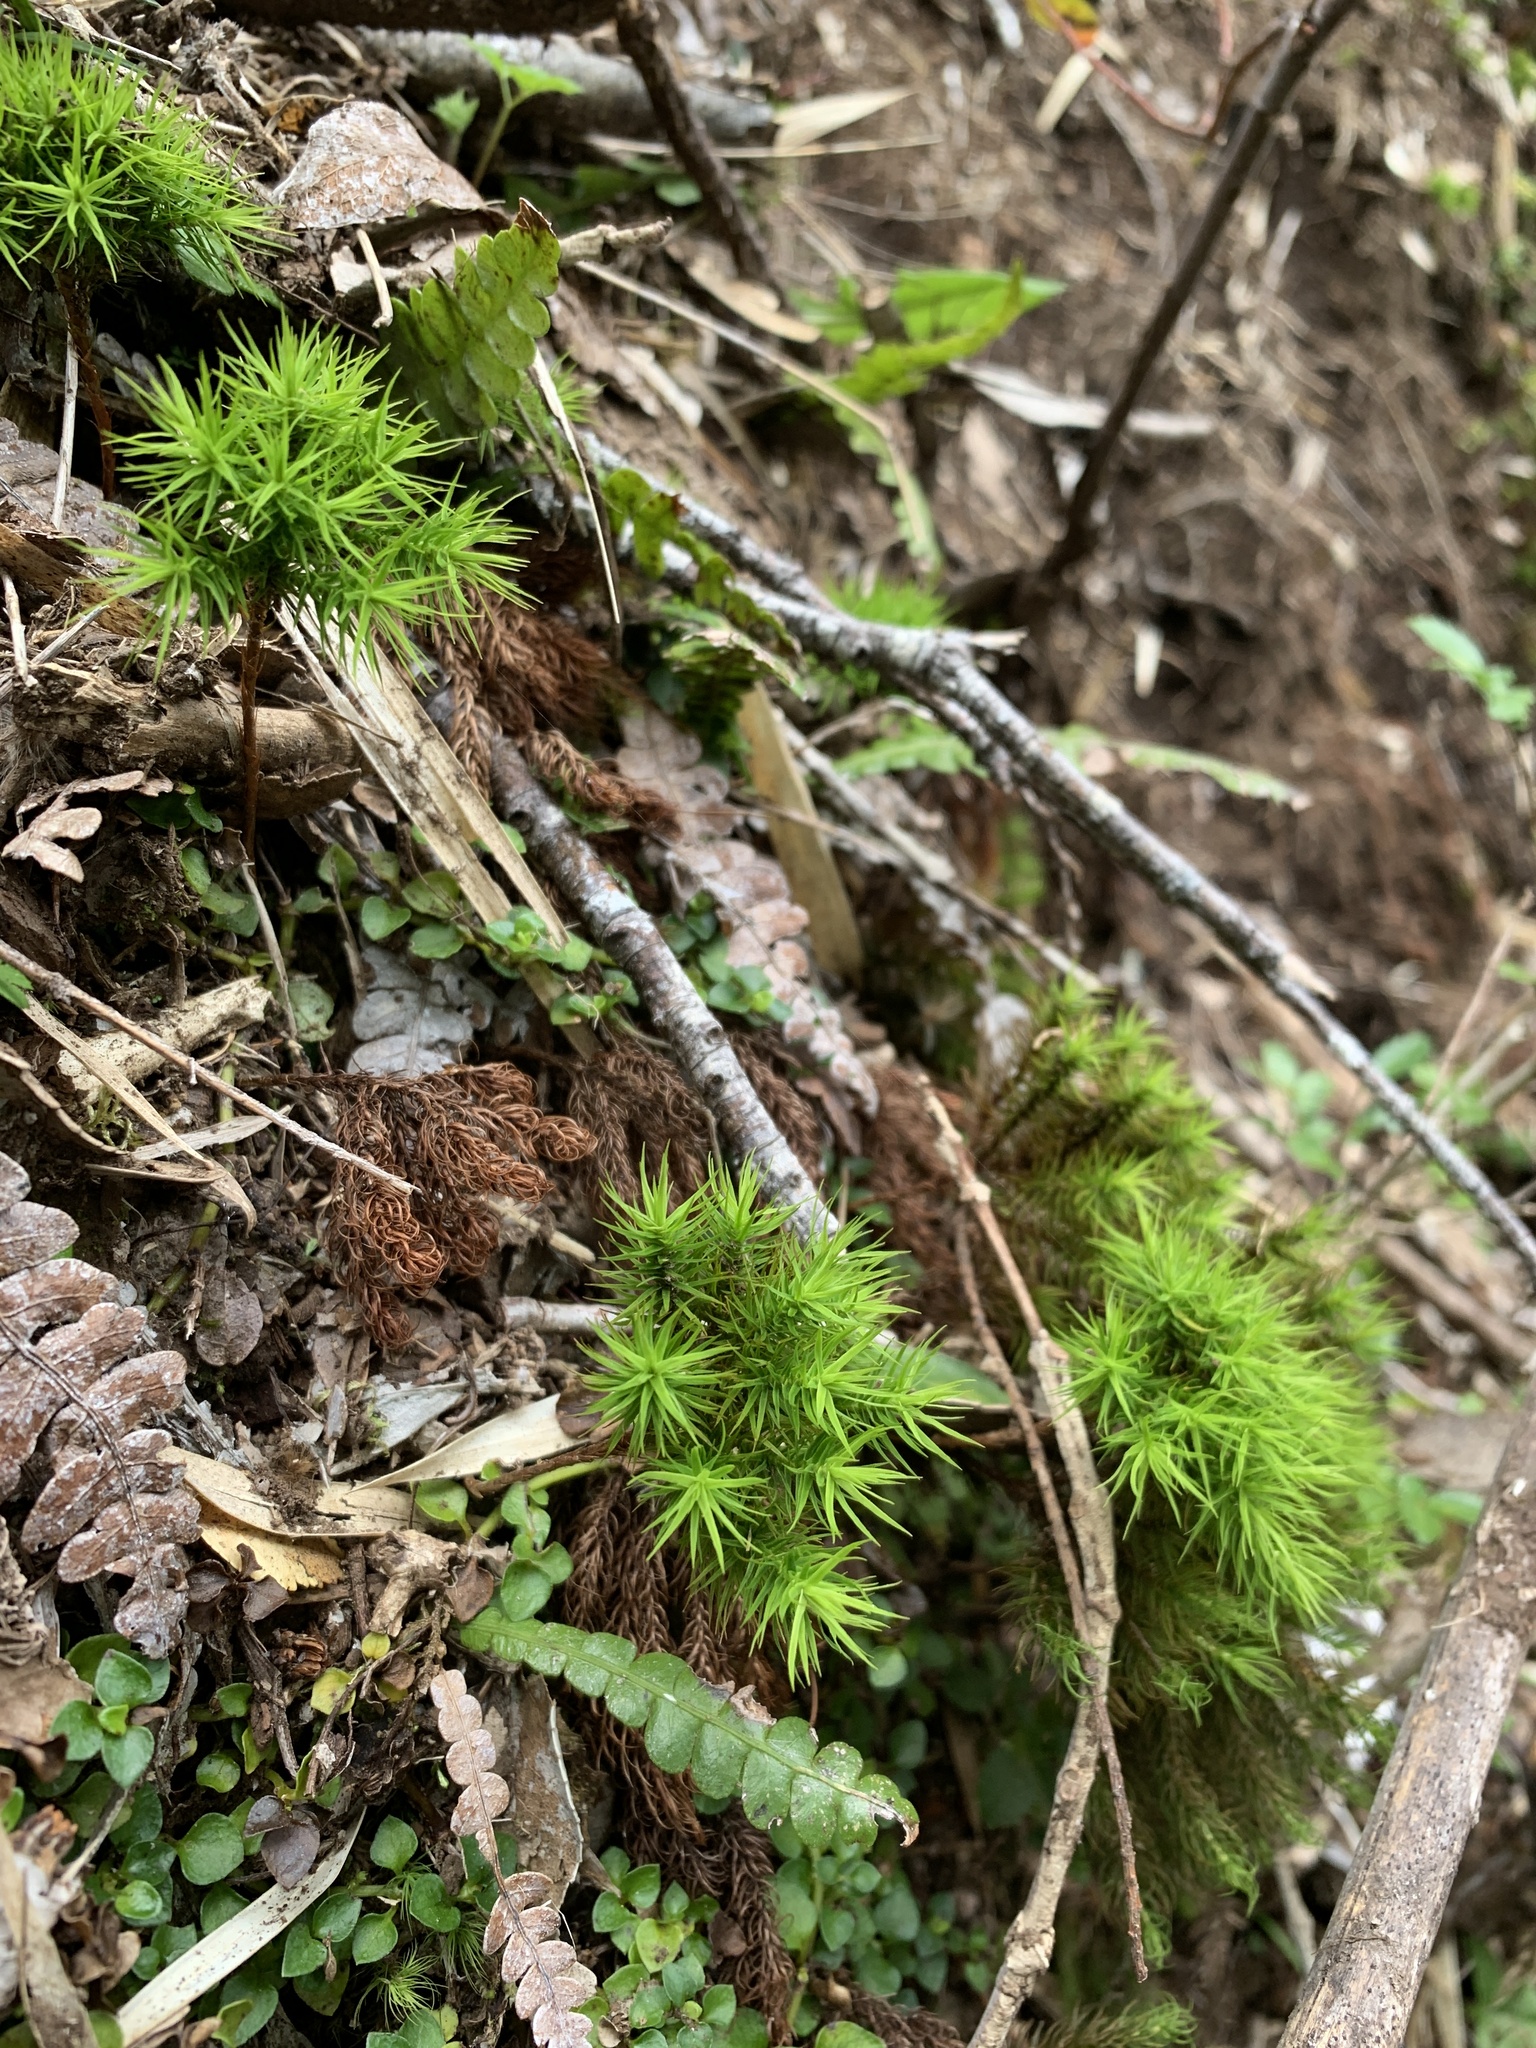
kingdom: Plantae
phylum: Bryophyta
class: Polytrichopsida
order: Polytrichales
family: Polytrichaceae
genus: Dendroligotrichum
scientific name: Dendroligotrichum dendroides
